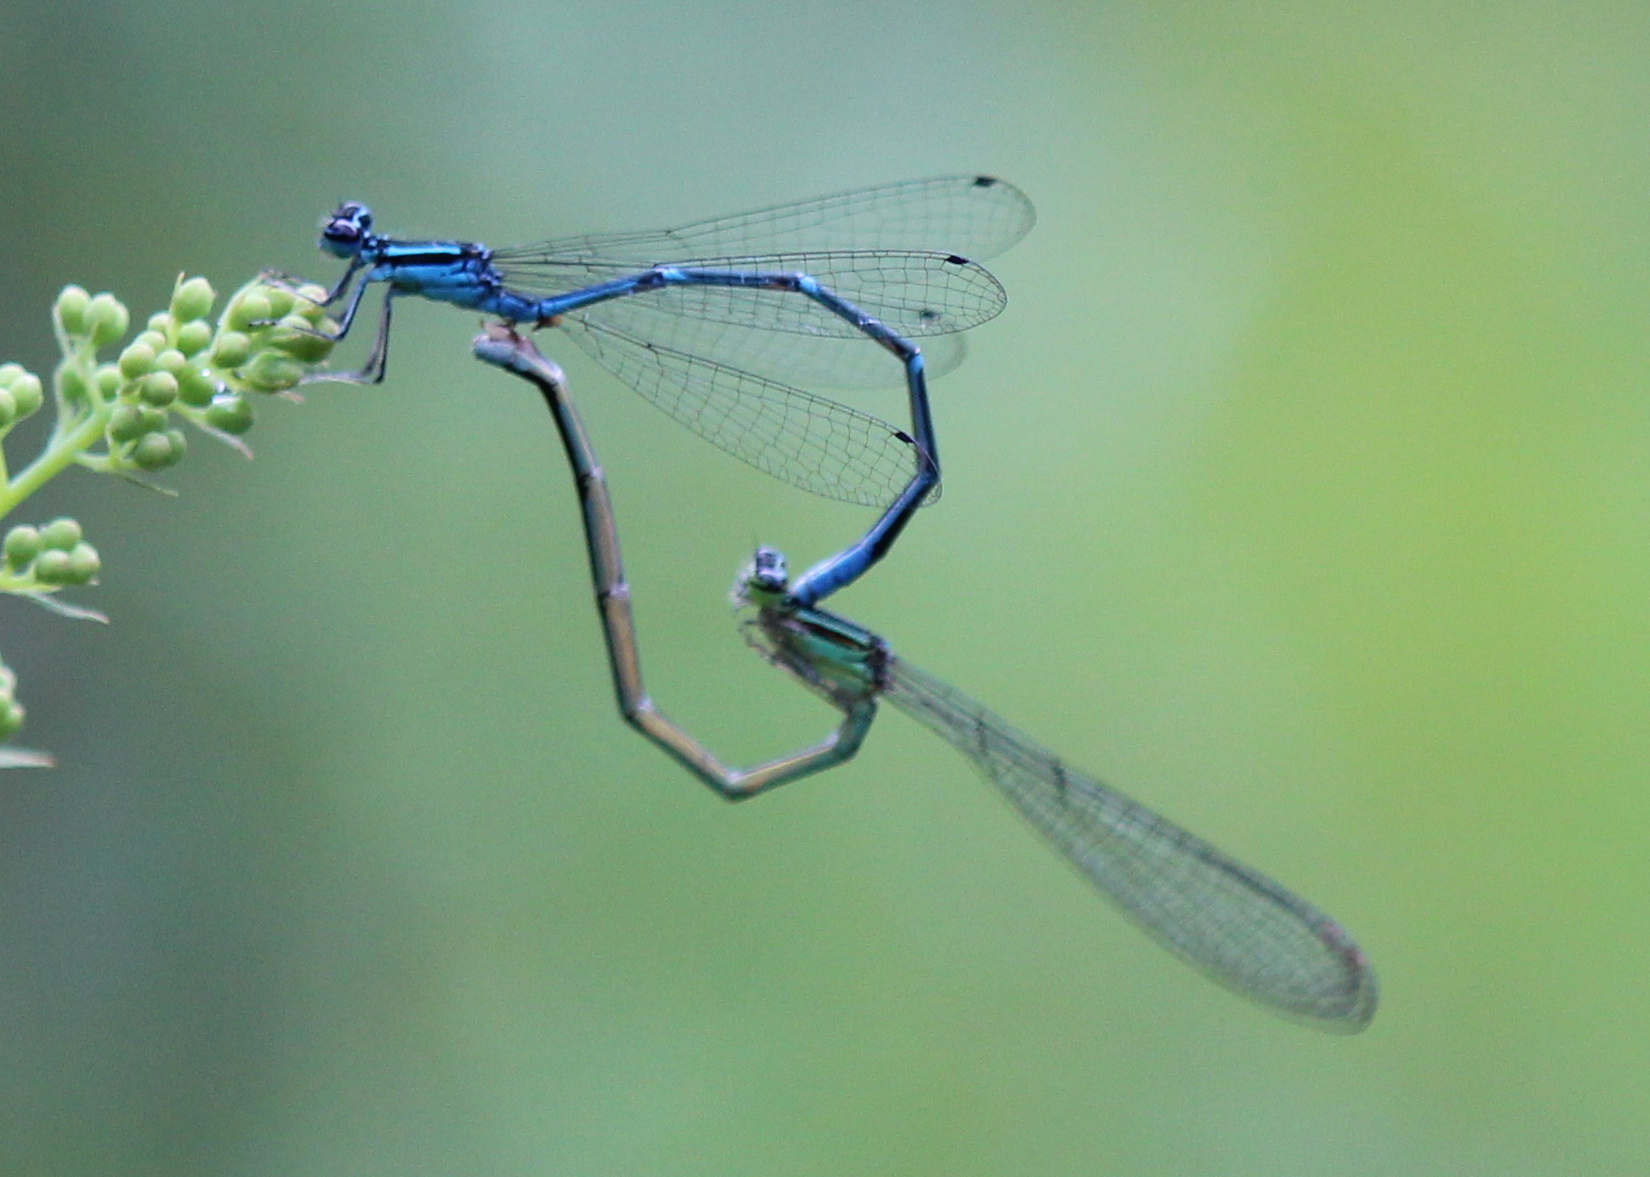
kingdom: Animalia
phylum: Arthropoda
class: Insecta
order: Odonata
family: Coenagrionidae
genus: Enallagma
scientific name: Enallagma exsulans
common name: Stream bluet
